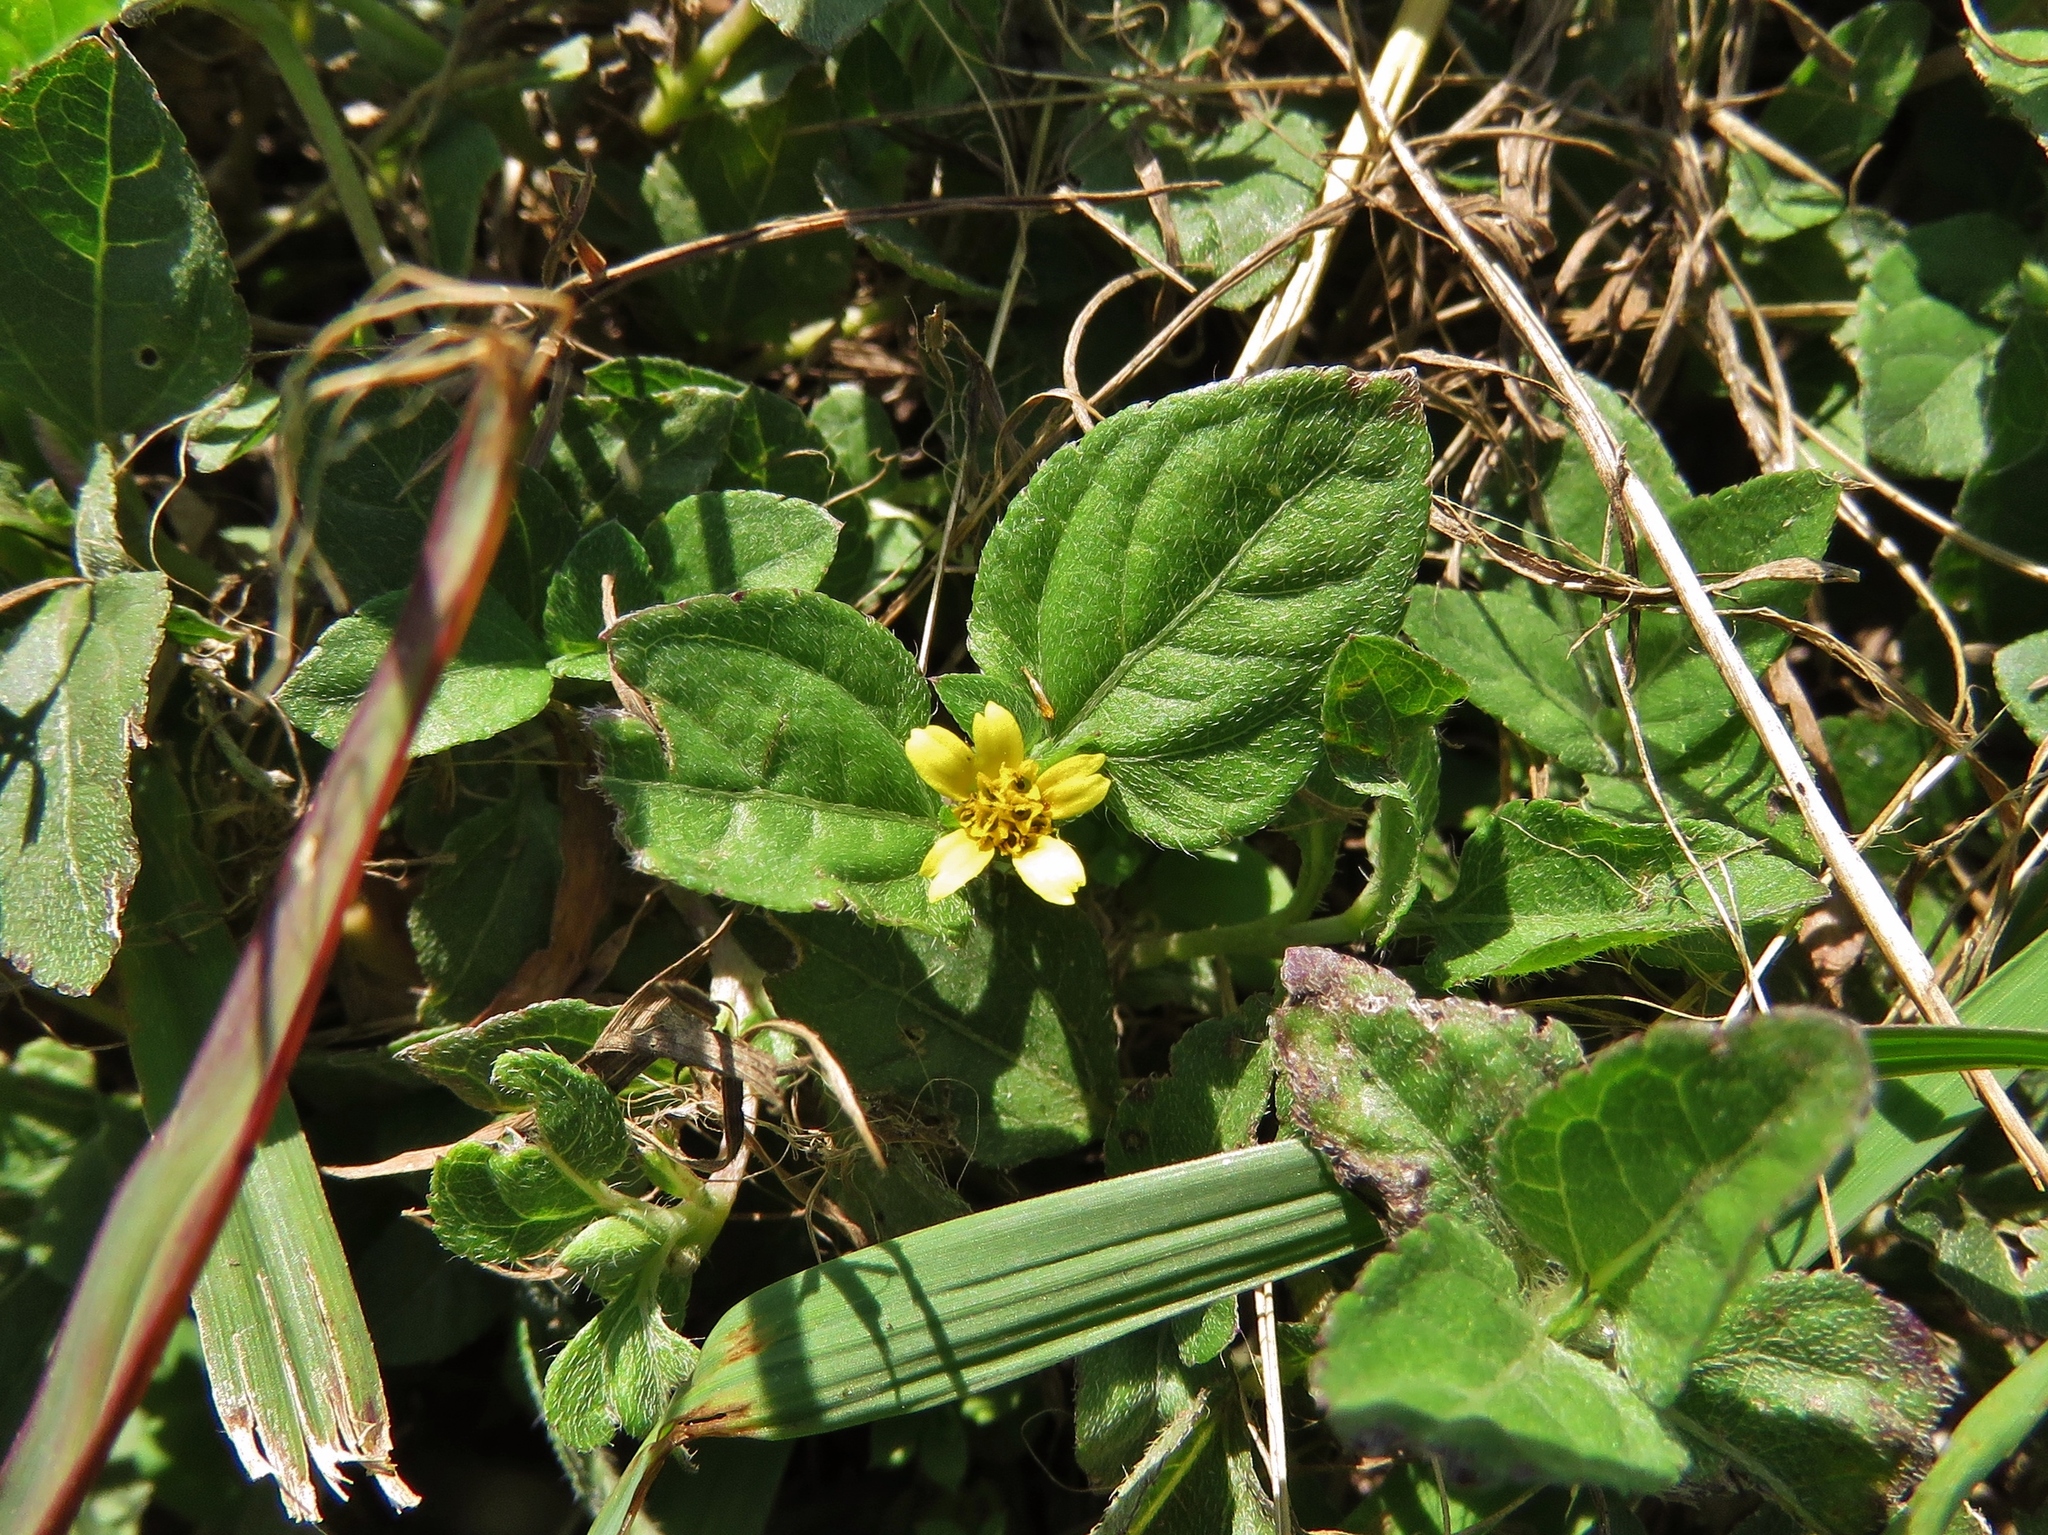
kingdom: Plantae
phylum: Tracheophyta
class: Magnoliopsida
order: Asterales
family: Asteraceae
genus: Calyptocarpus
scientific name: Calyptocarpus vialis
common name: Straggler daisy
